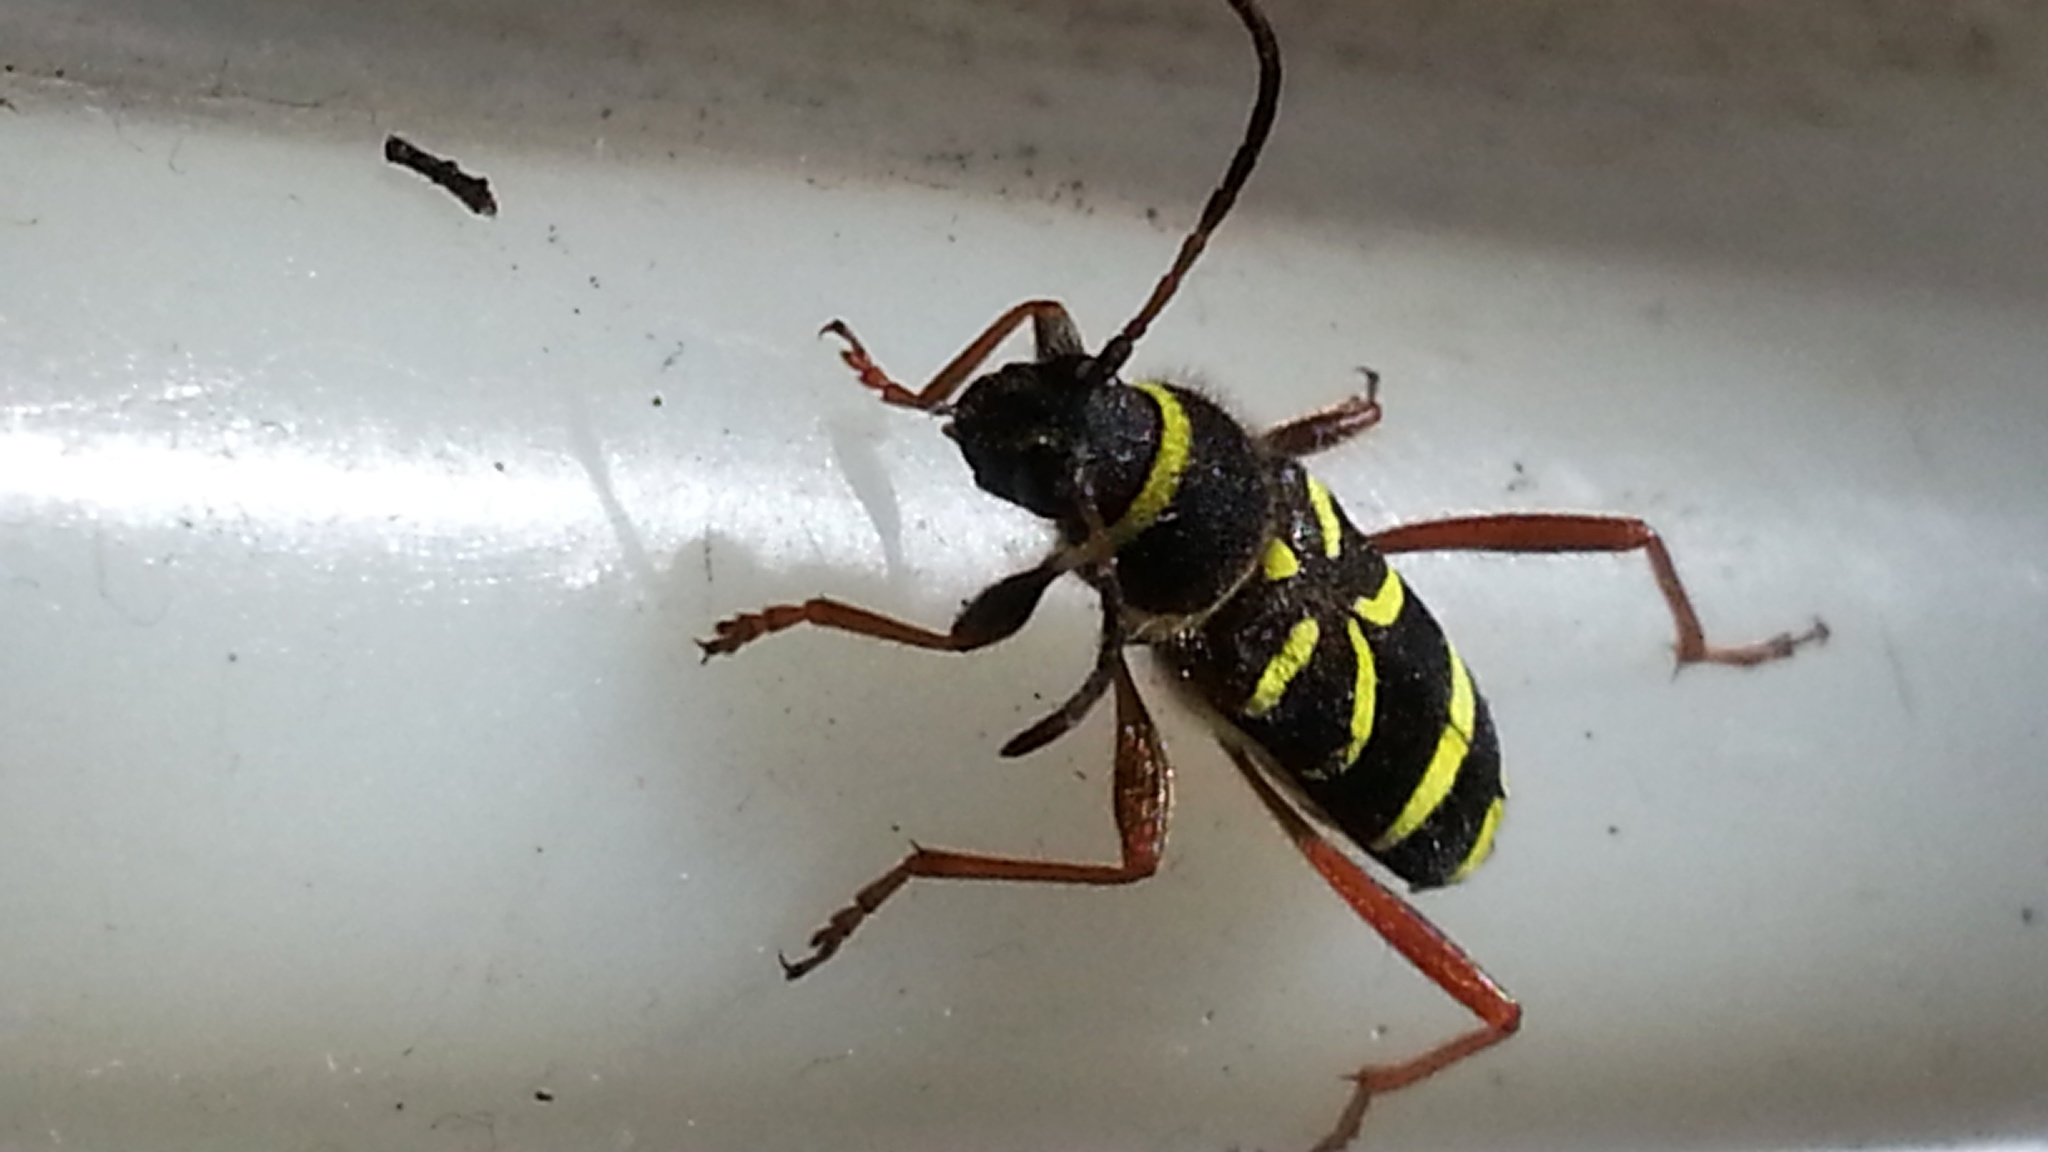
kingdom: Animalia
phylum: Arthropoda
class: Insecta
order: Coleoptera
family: Cerambycidae
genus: Clytus
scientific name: Clytus arietis
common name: Wasp beetle
